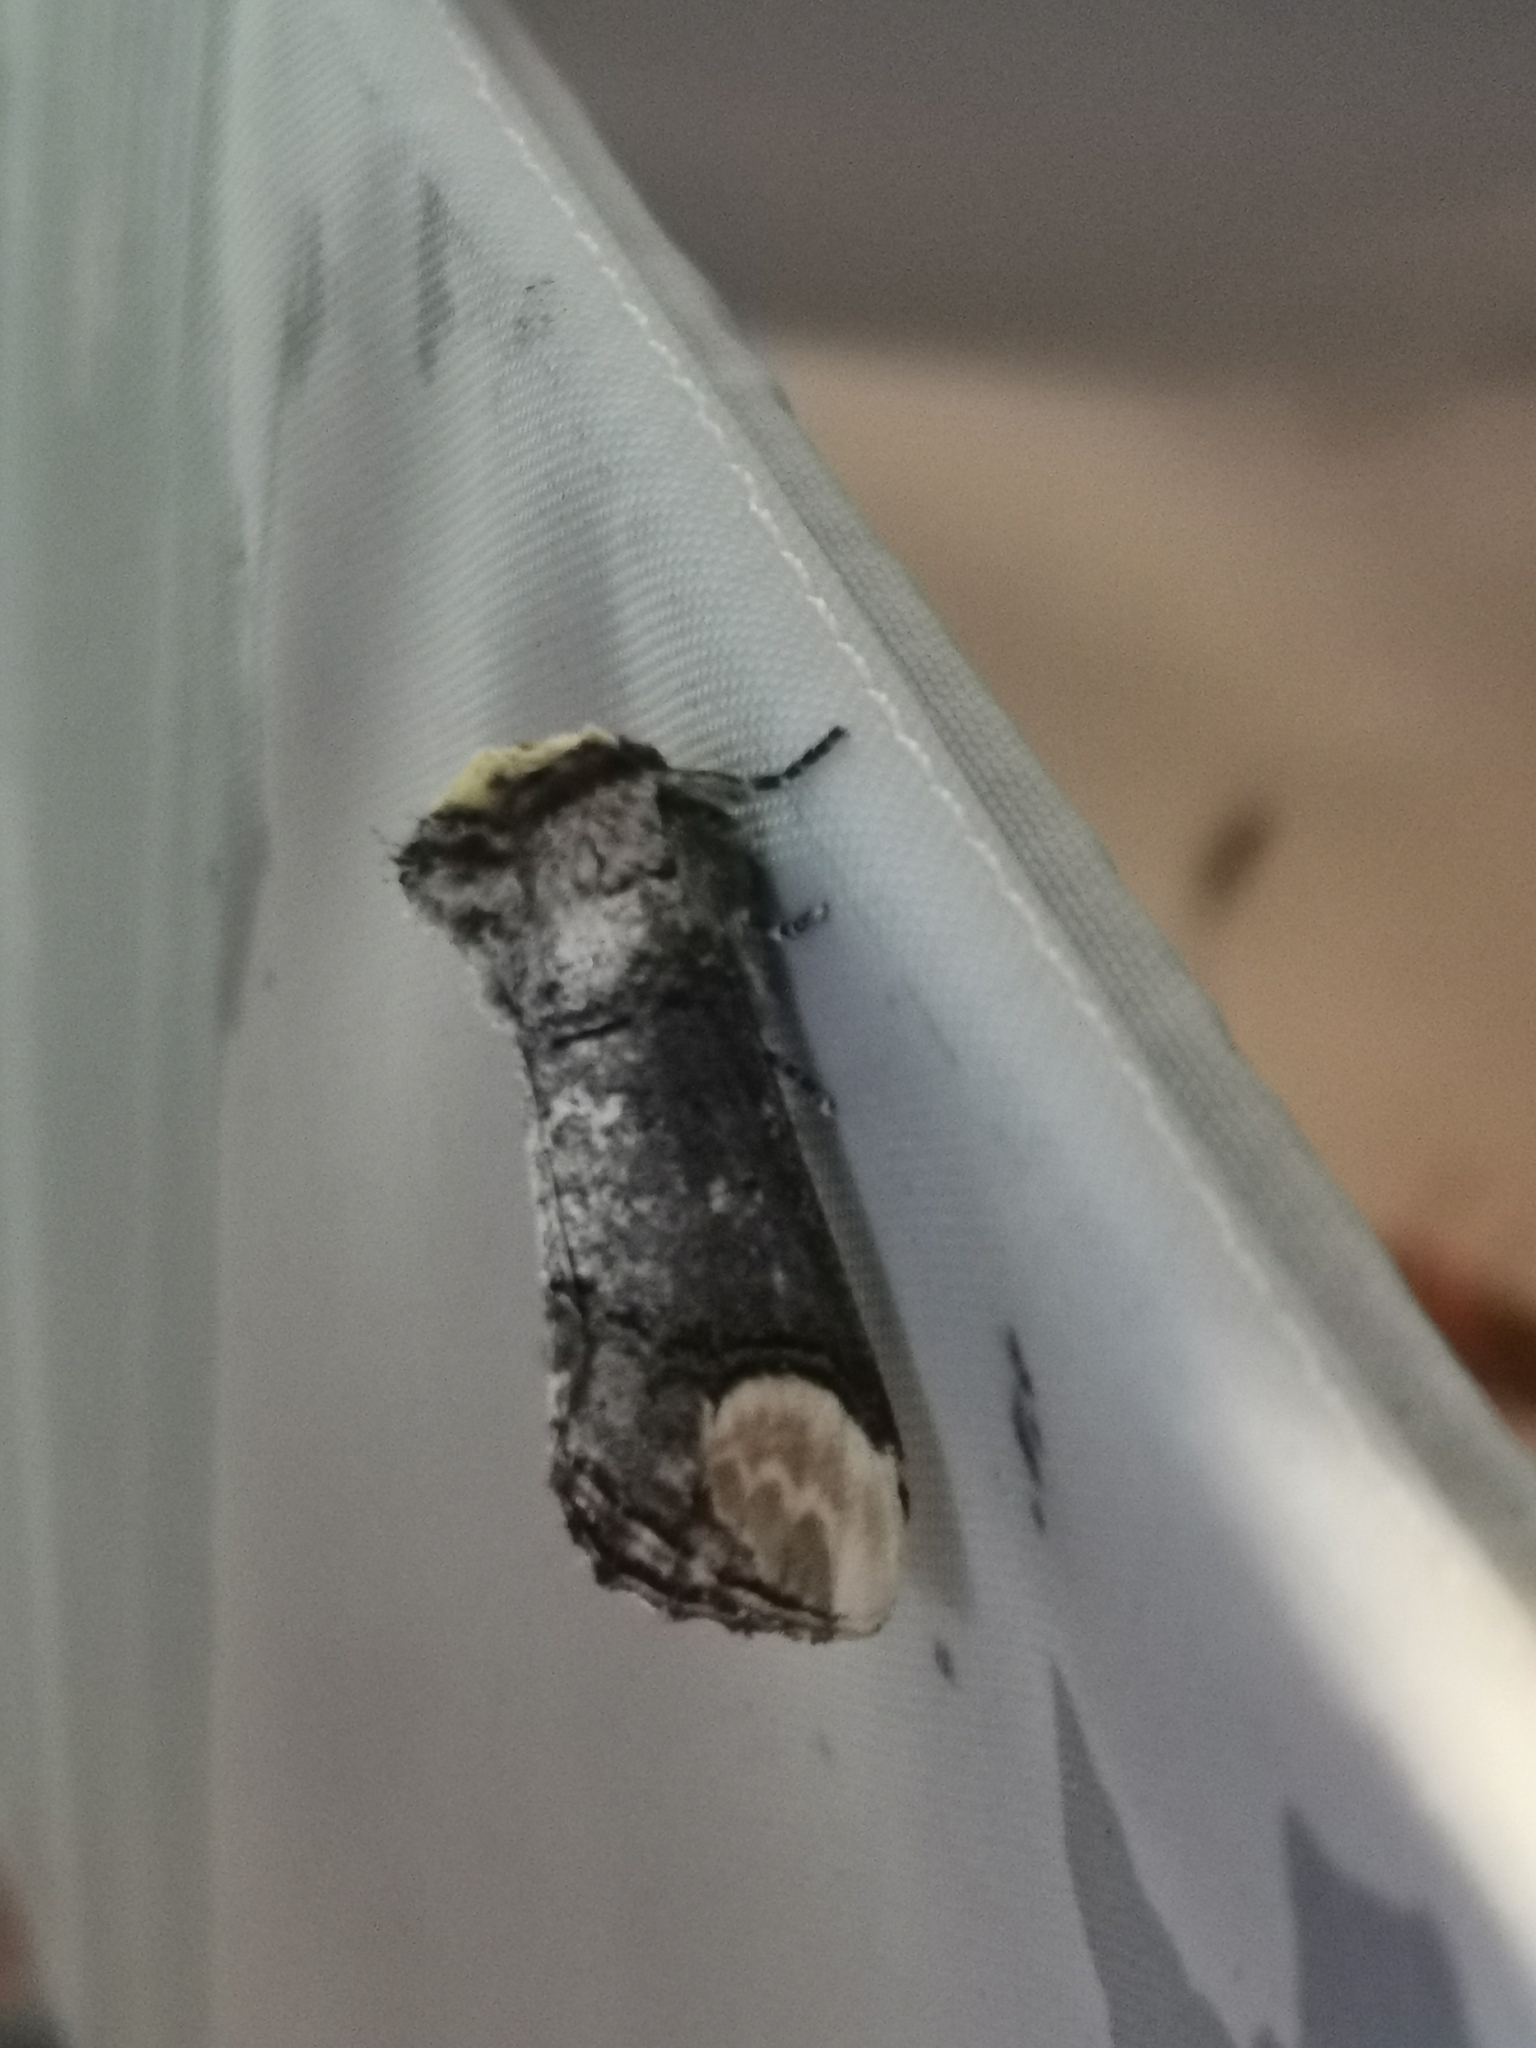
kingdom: Animalia
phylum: Arthropoda
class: Insecta
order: Lepidoptera
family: Notodontidae
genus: Phalera
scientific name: Phalera bucephala
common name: Buff-tip
